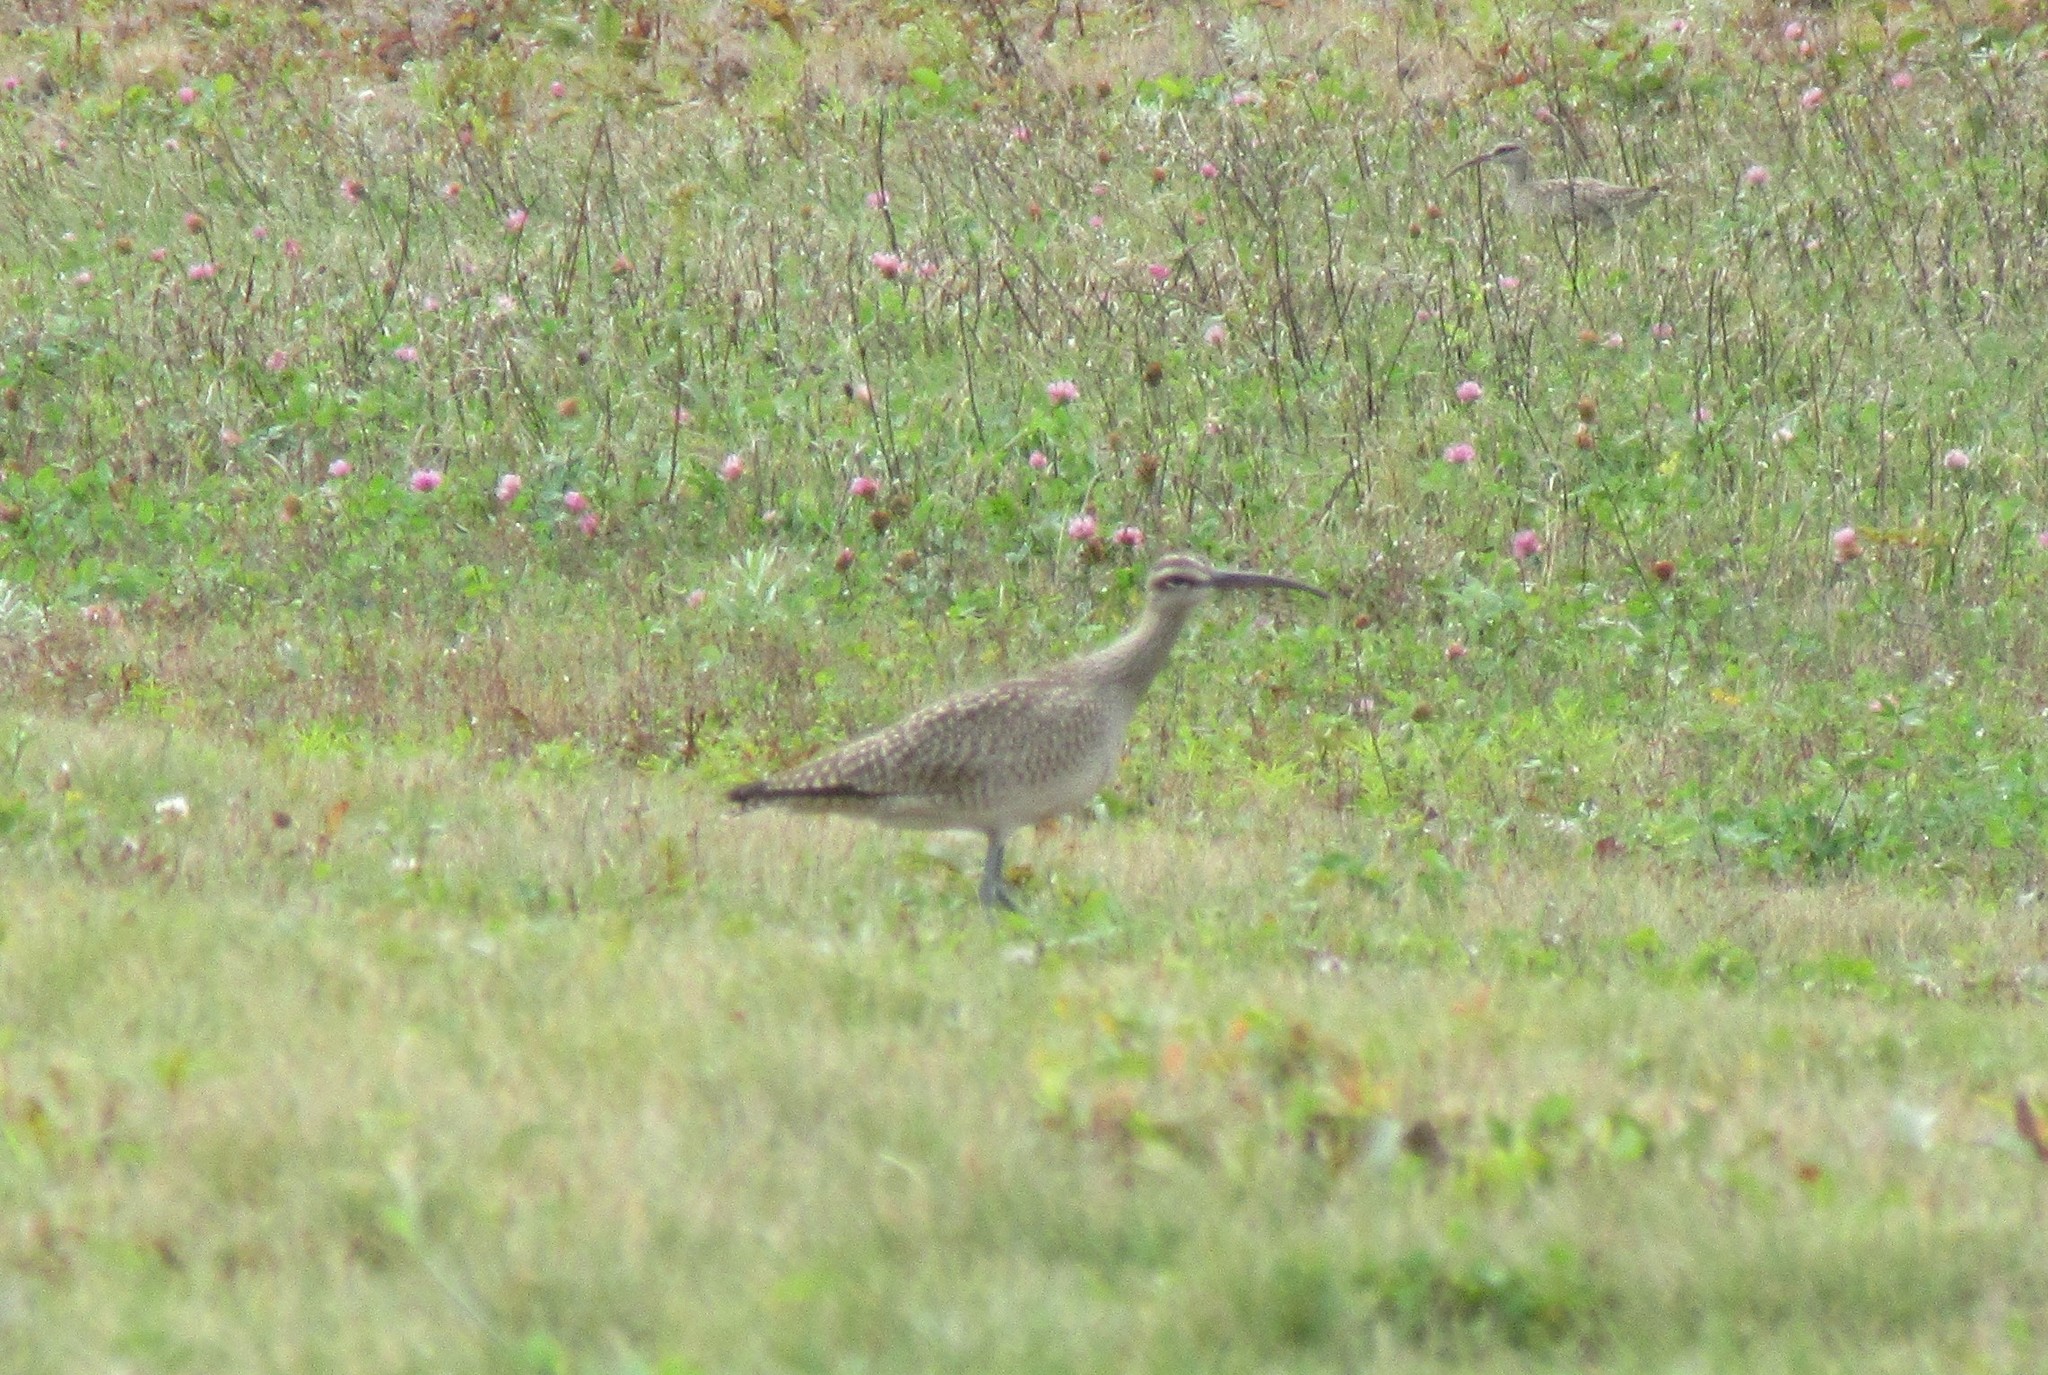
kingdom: Animalia
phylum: Chordata
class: Aves
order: Charadriiformes
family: Scolopacidae
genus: Numenius
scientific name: Numenius phaeopus
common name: Whimbrel
